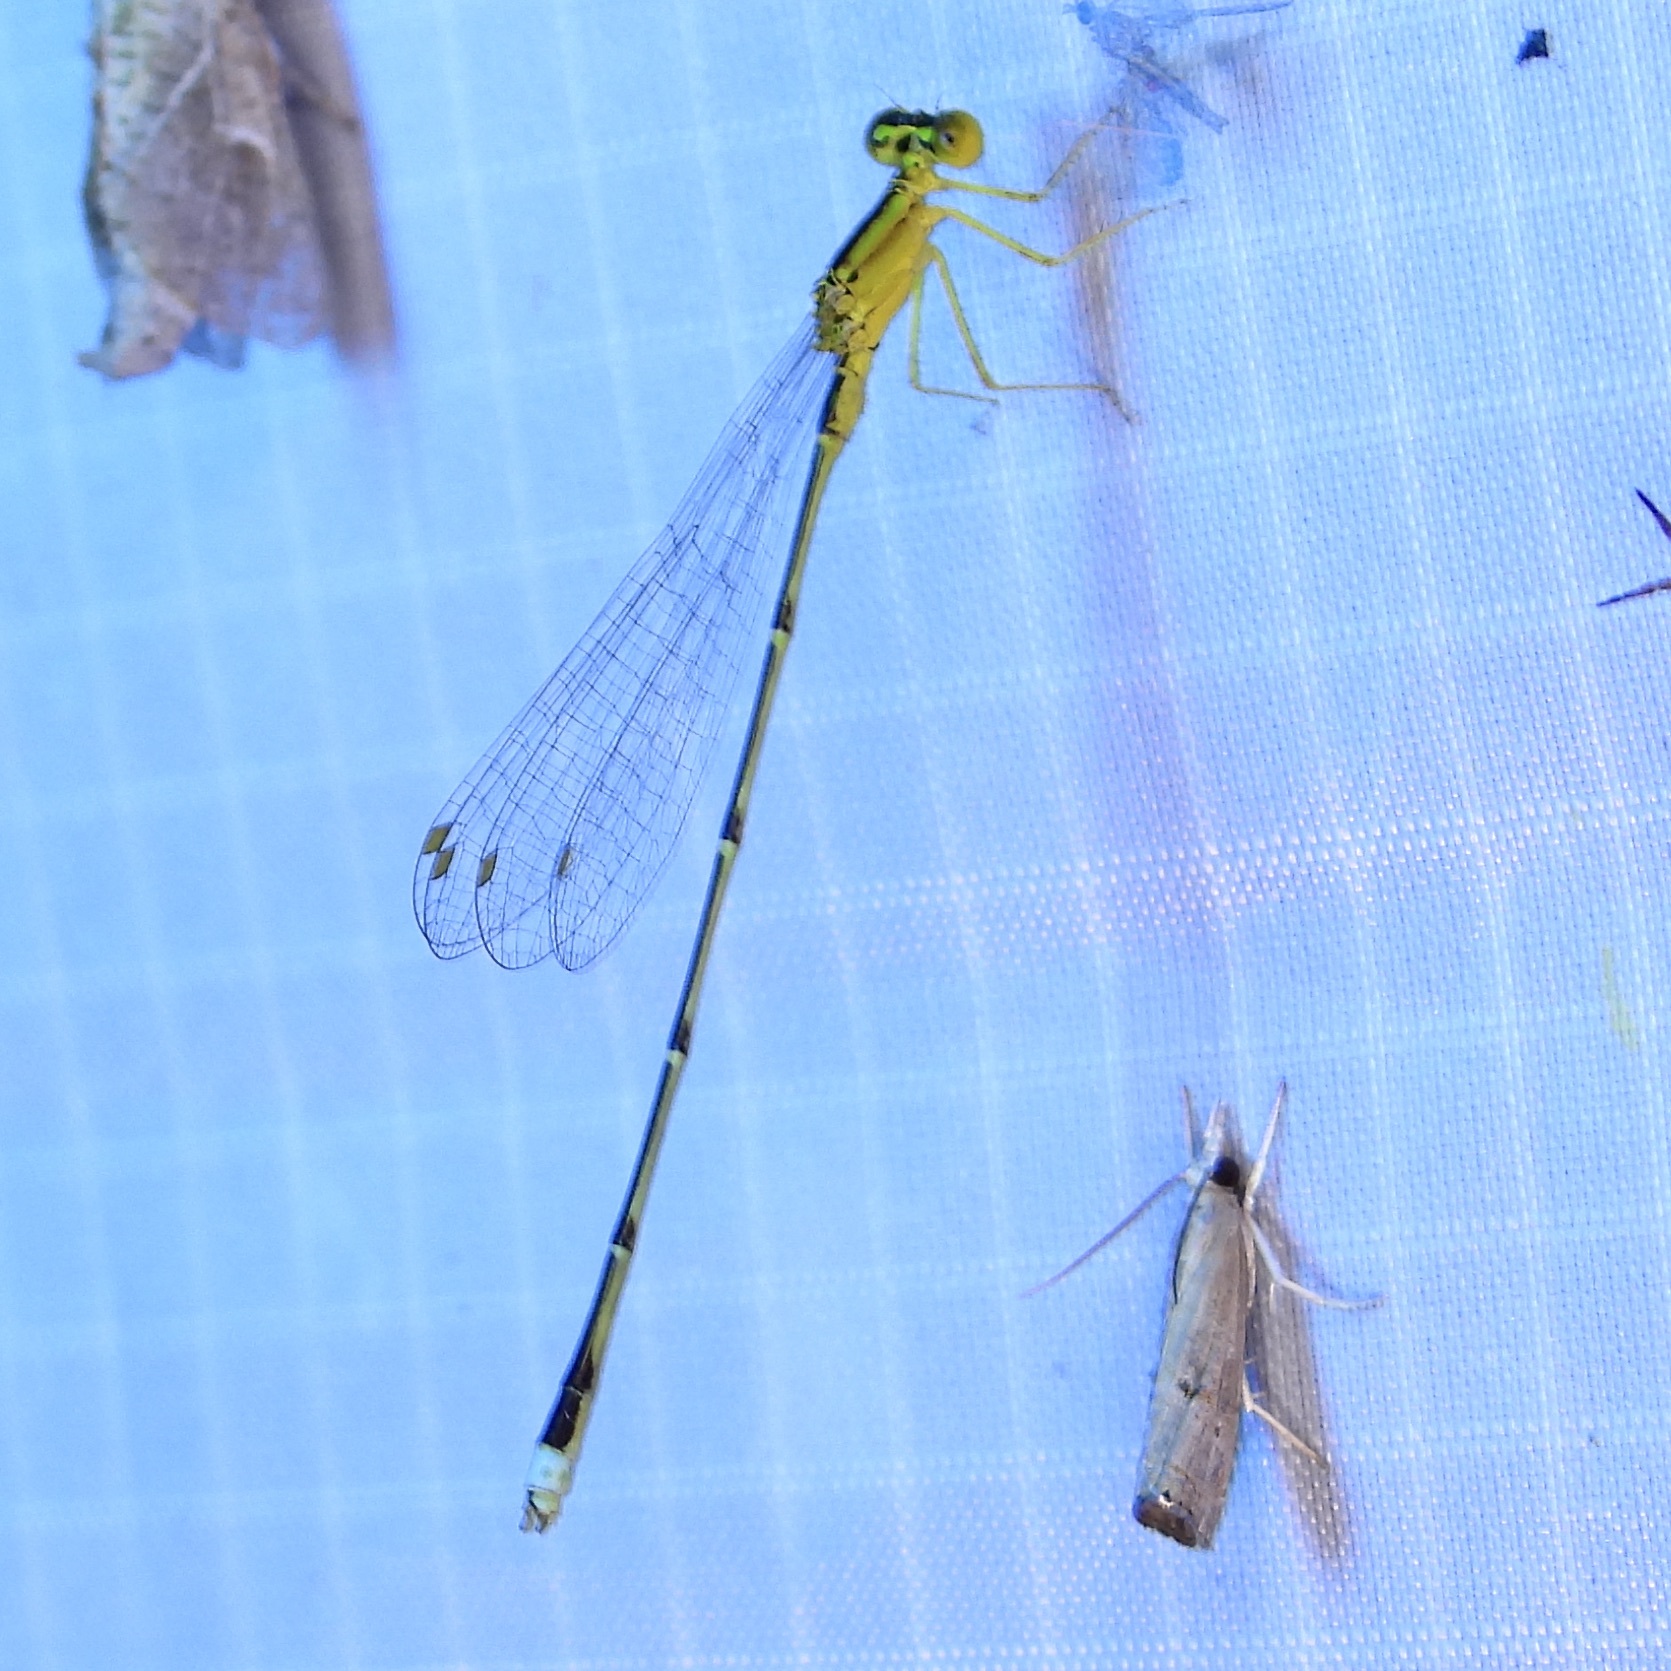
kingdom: Animalia
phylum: Arthropoda
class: Insecta
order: Odonata
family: Coenagrionidae
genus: Enallagma
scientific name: Enallagma vesperum
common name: Vesper bluet
